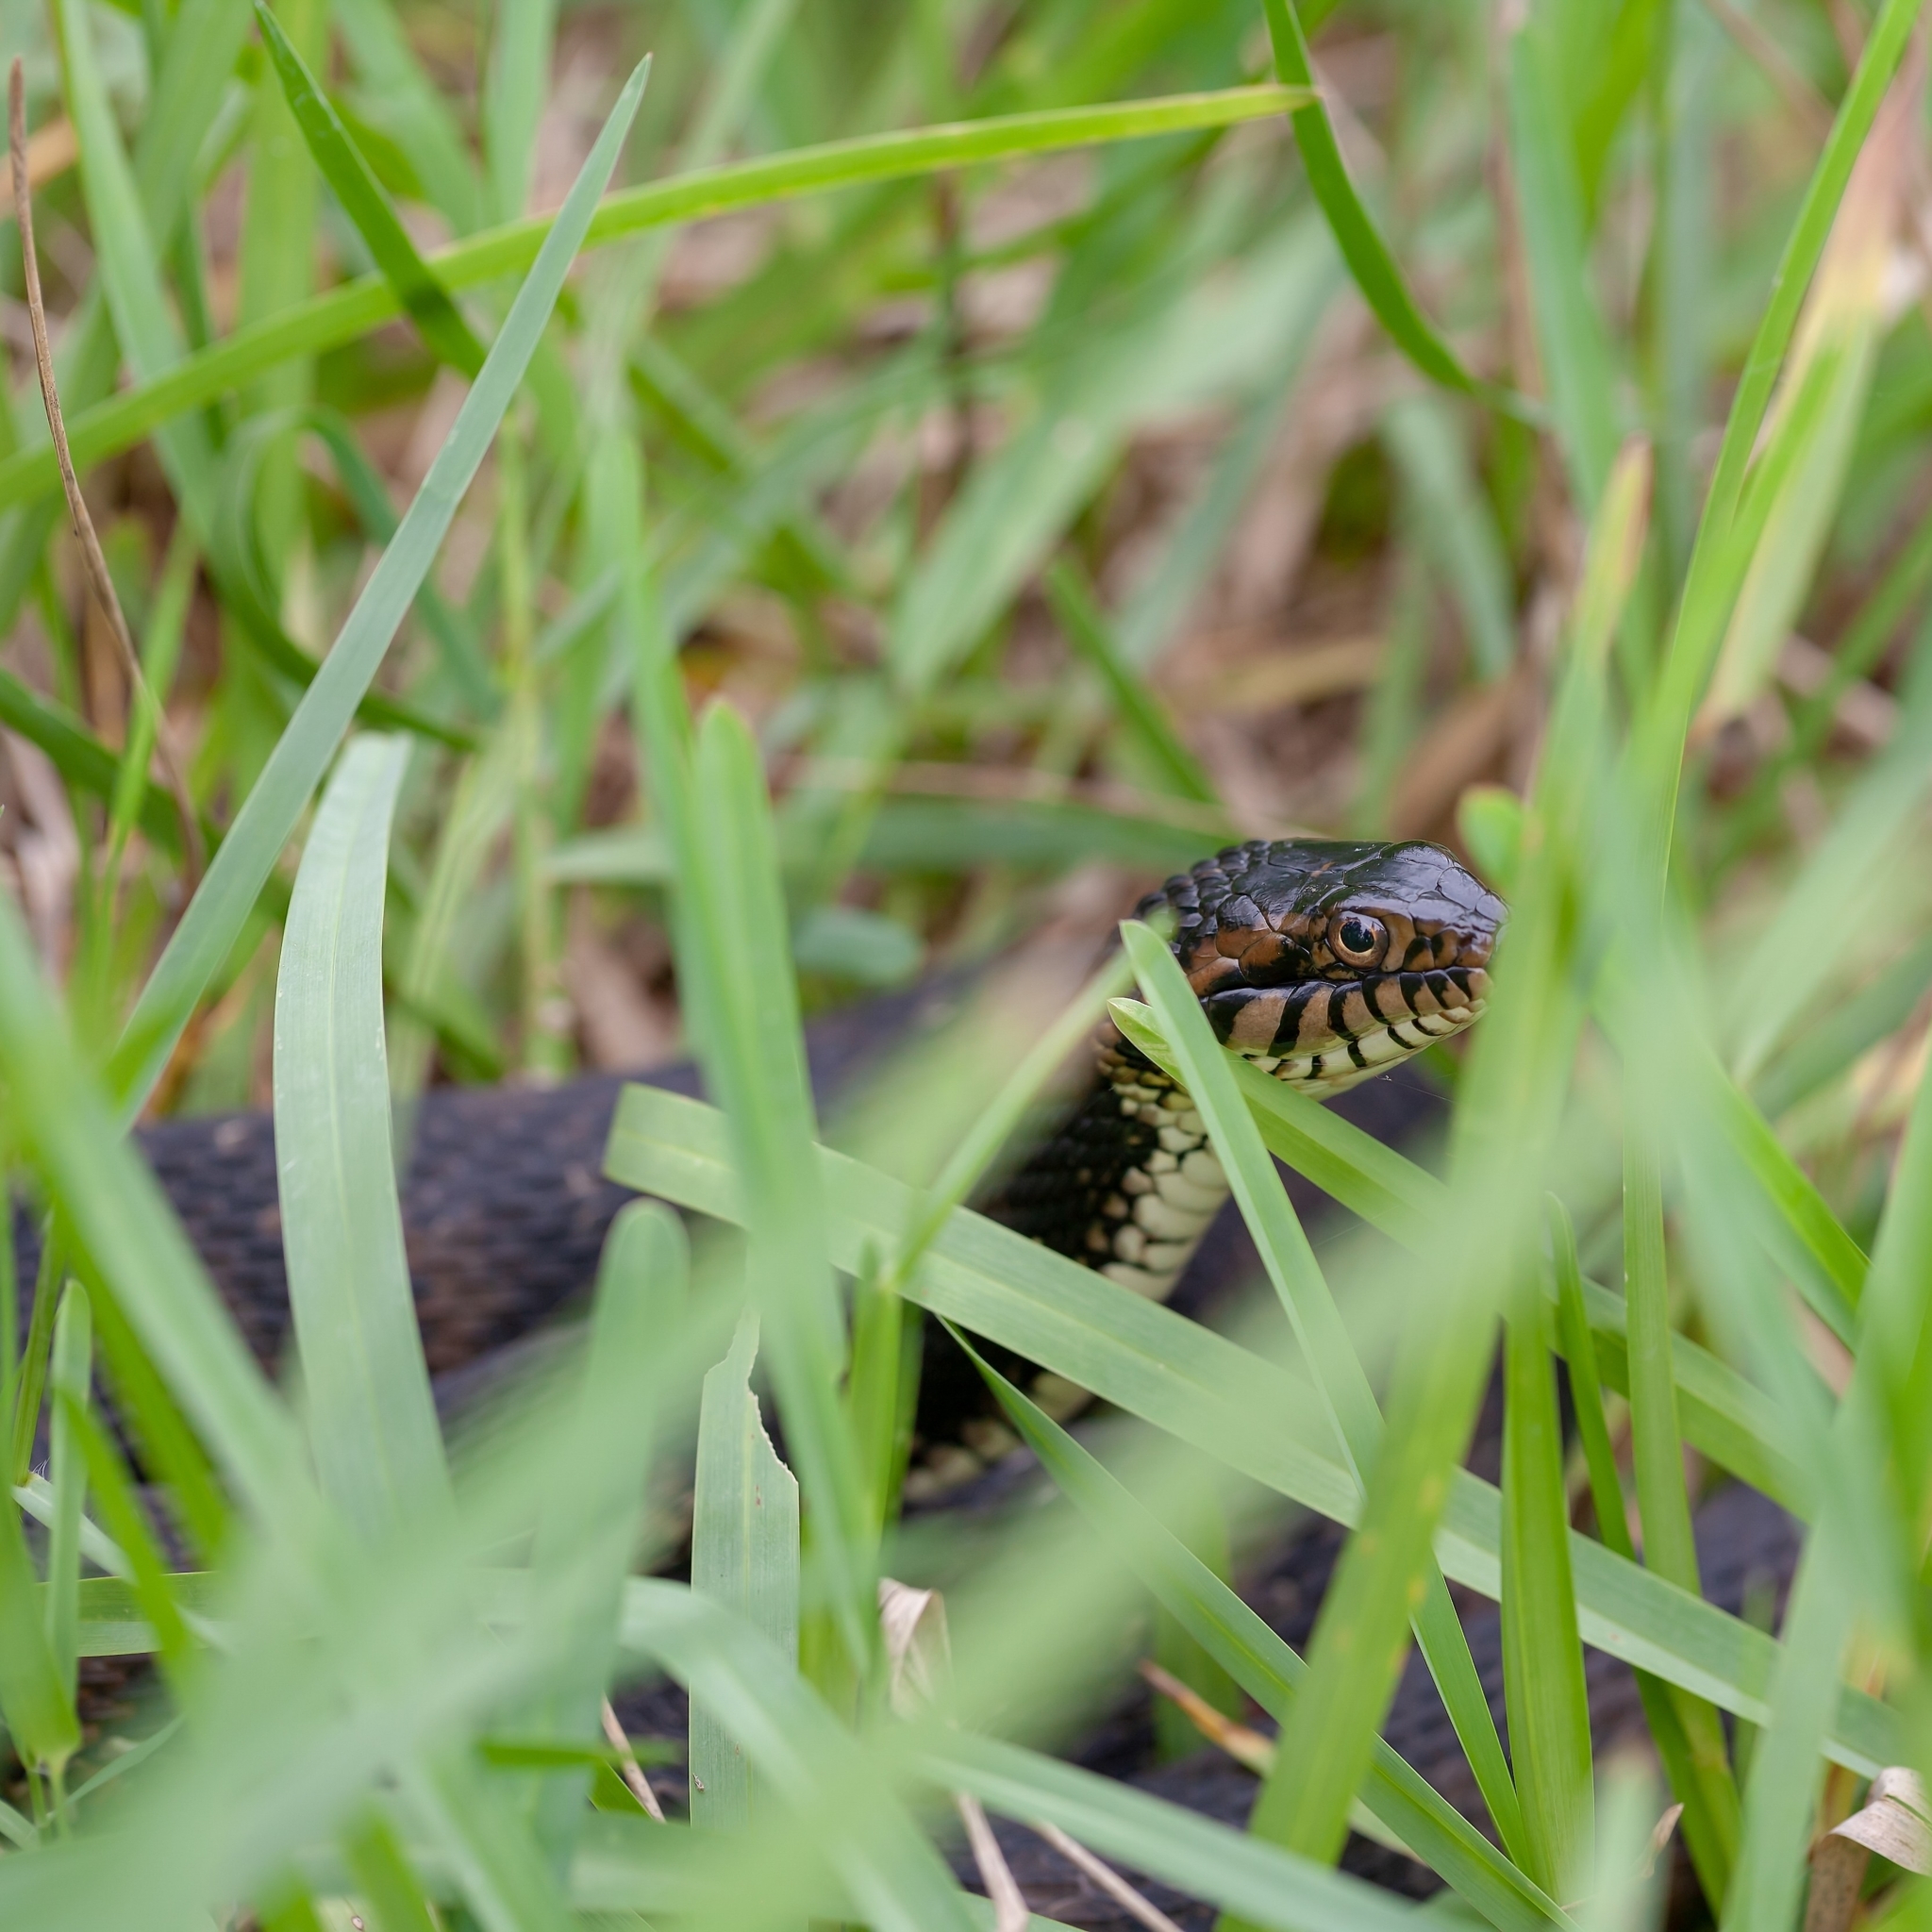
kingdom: Animalia
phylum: Chordata
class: Squamata
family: Colubridae
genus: Nerodia
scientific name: Nerodia fasciata
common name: Southern water snake
